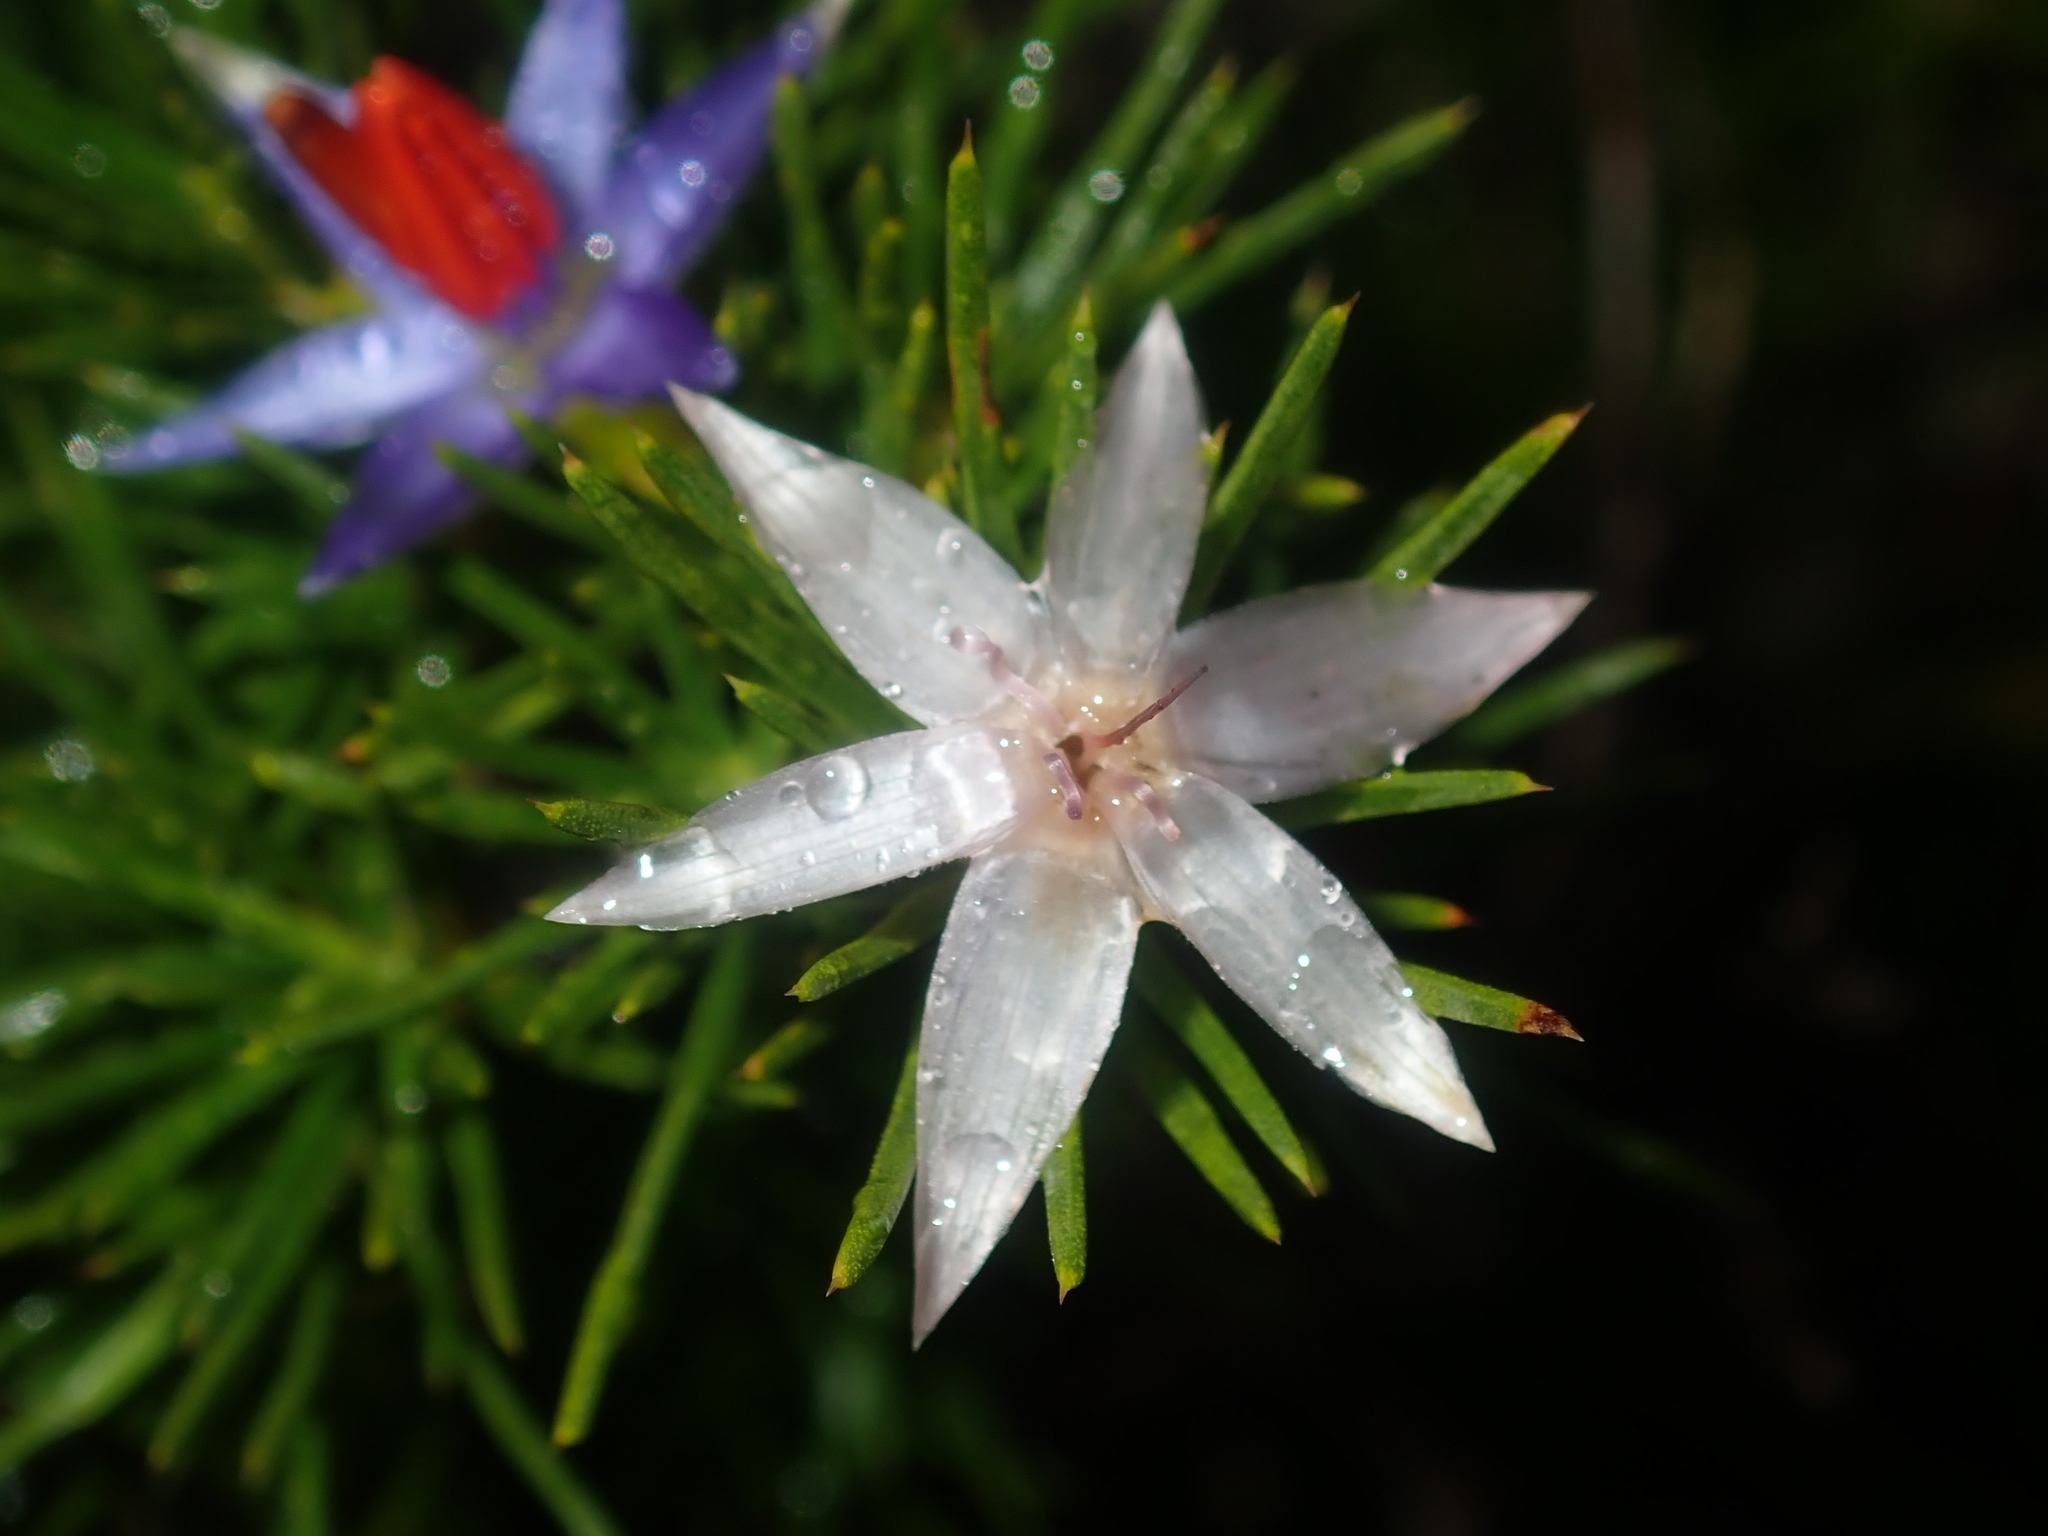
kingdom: Plantae
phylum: Tracheophyta
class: Liliopsida
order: Arecales
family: Dasypogonaceae
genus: Calectasia
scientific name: Calectasia narragara
